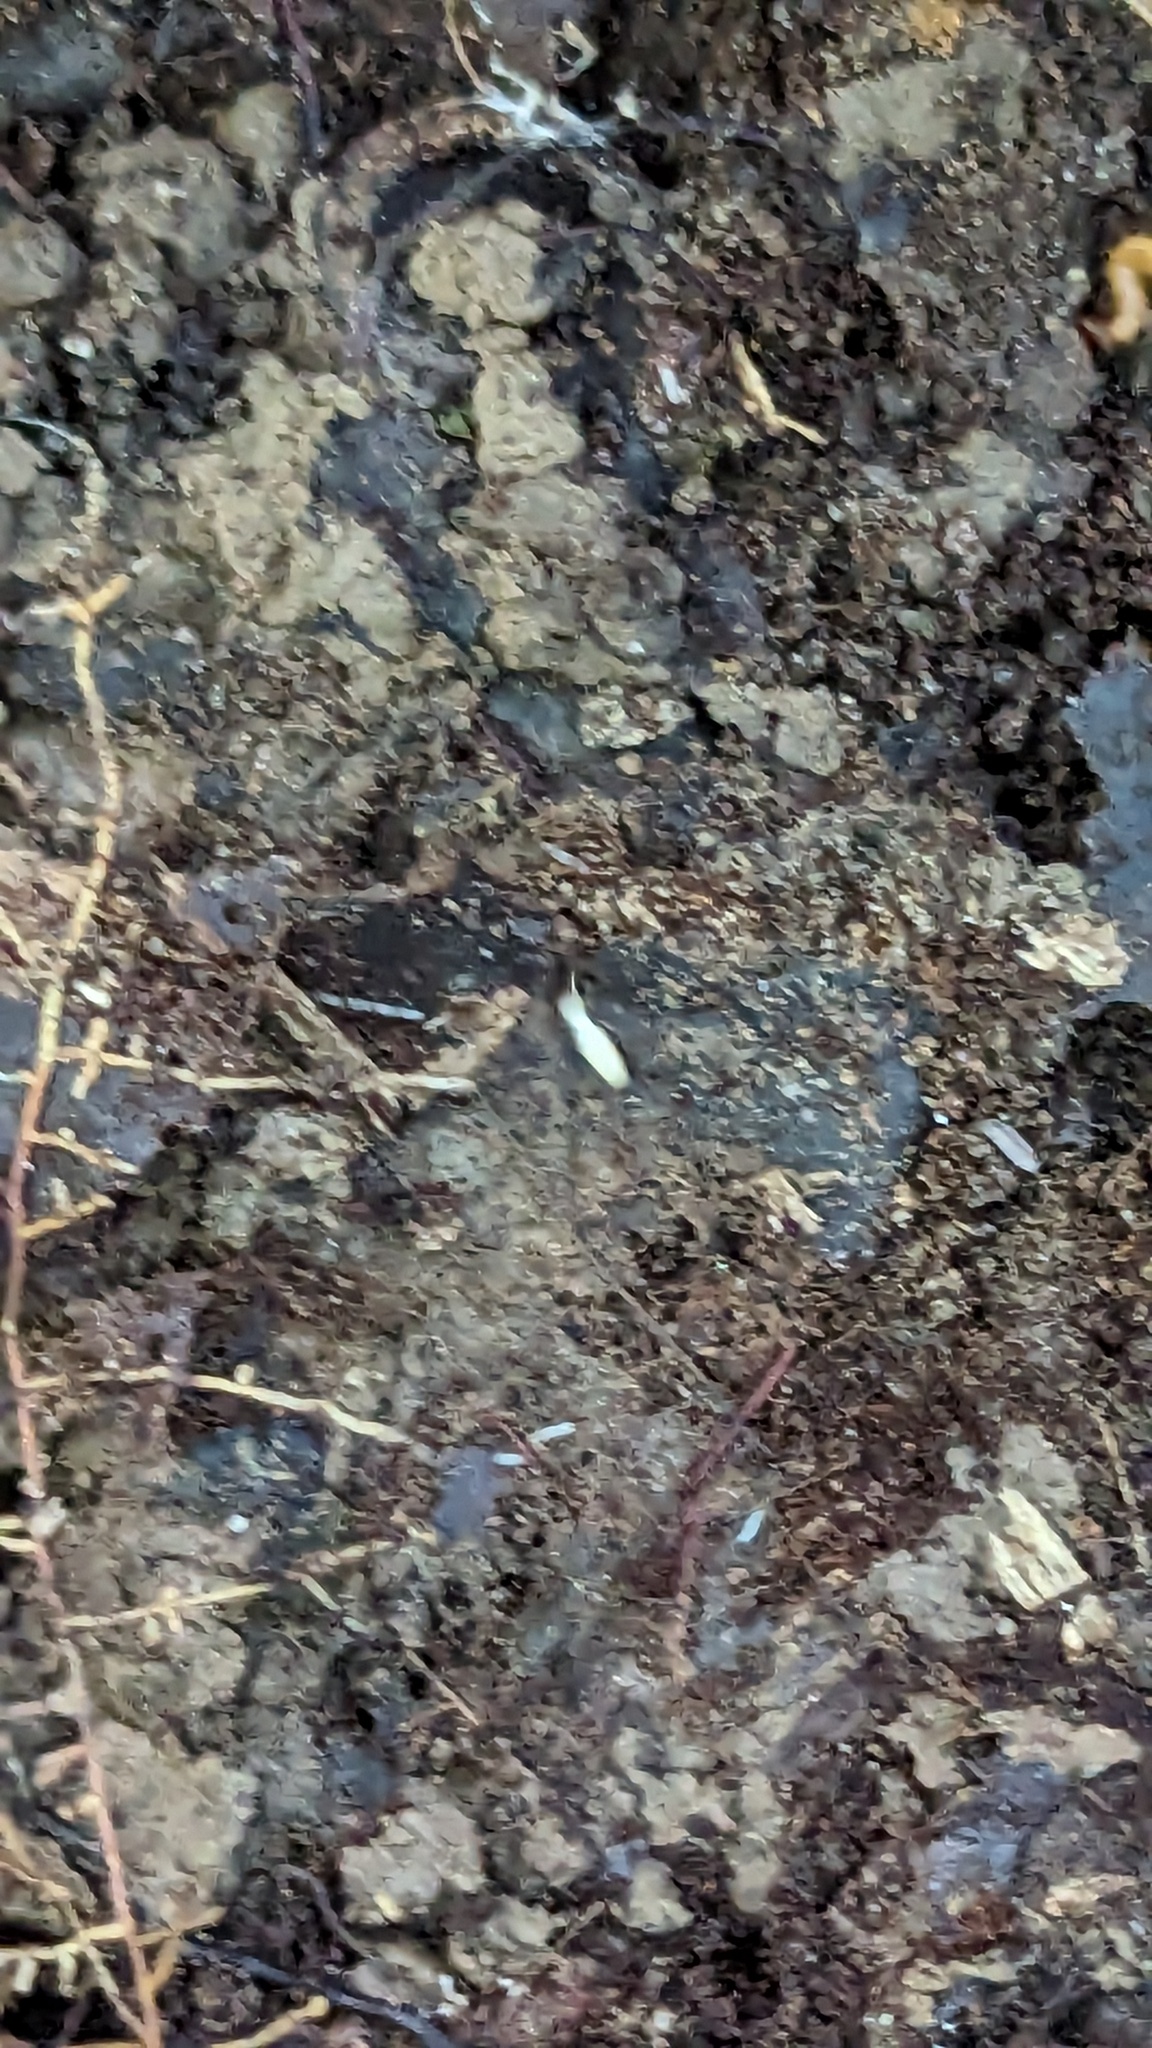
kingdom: Animalia
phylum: Arthropoda
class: Insecta
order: Blattodea
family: Rhinotermitidae
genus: Reticulitermes
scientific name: Reticulitermes flavipes
